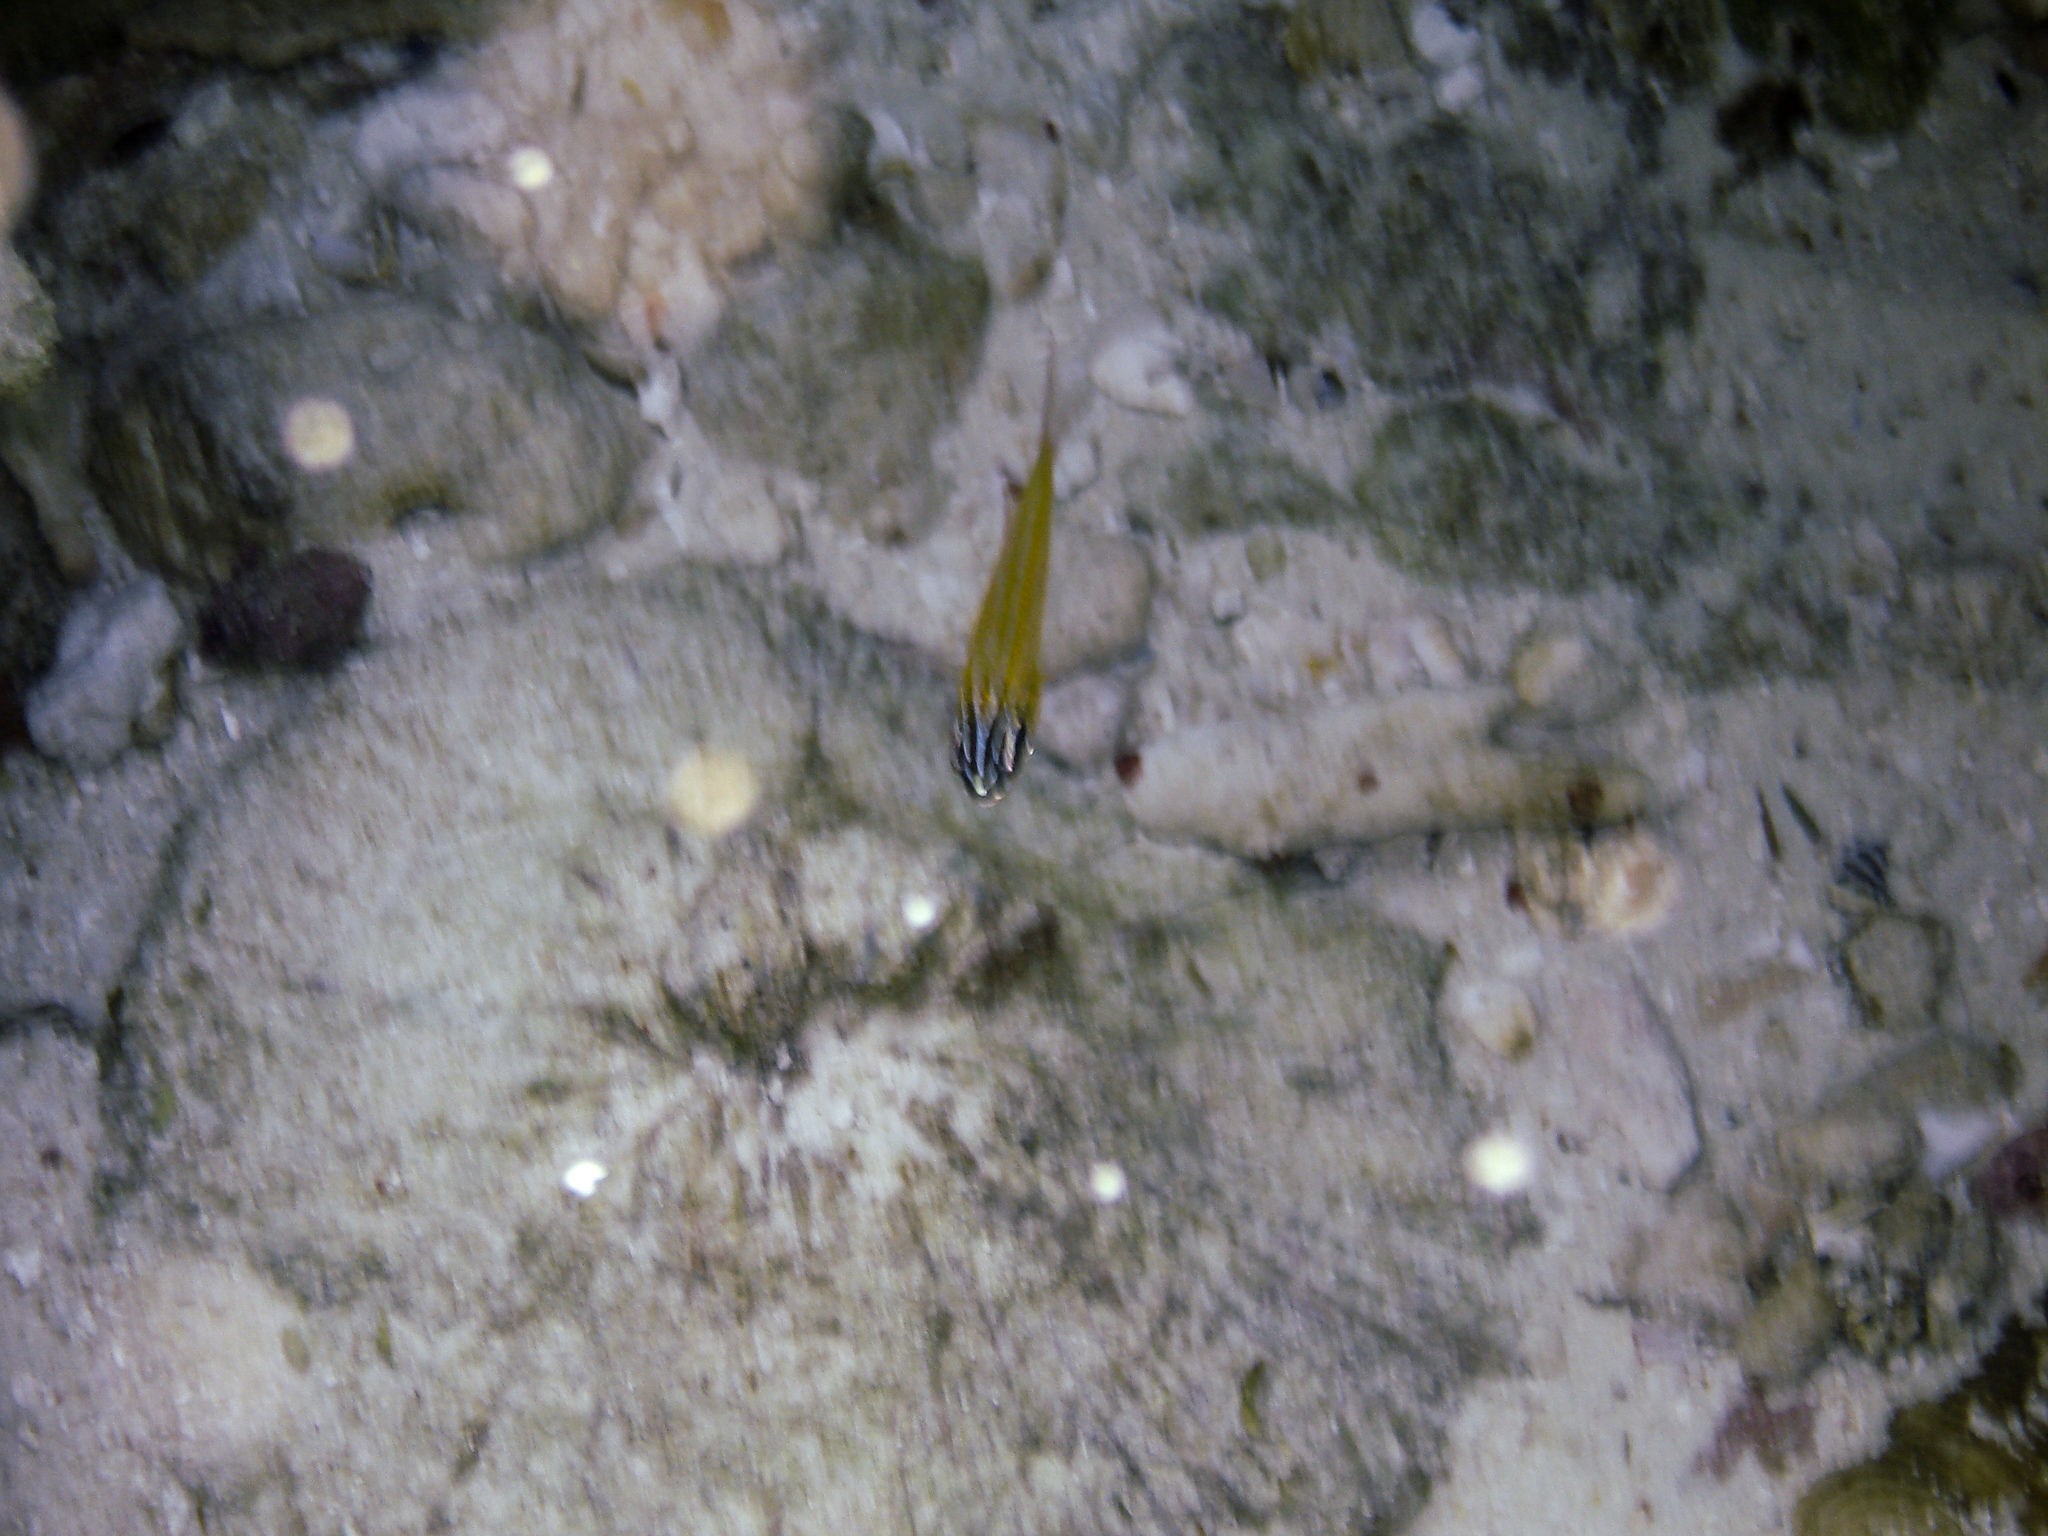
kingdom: Animalia
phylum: Chordata
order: Perciformes
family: Apogonidae
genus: Ostorhinchus
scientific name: Ostorhinchus properuptus
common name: Coral cardinalfish
